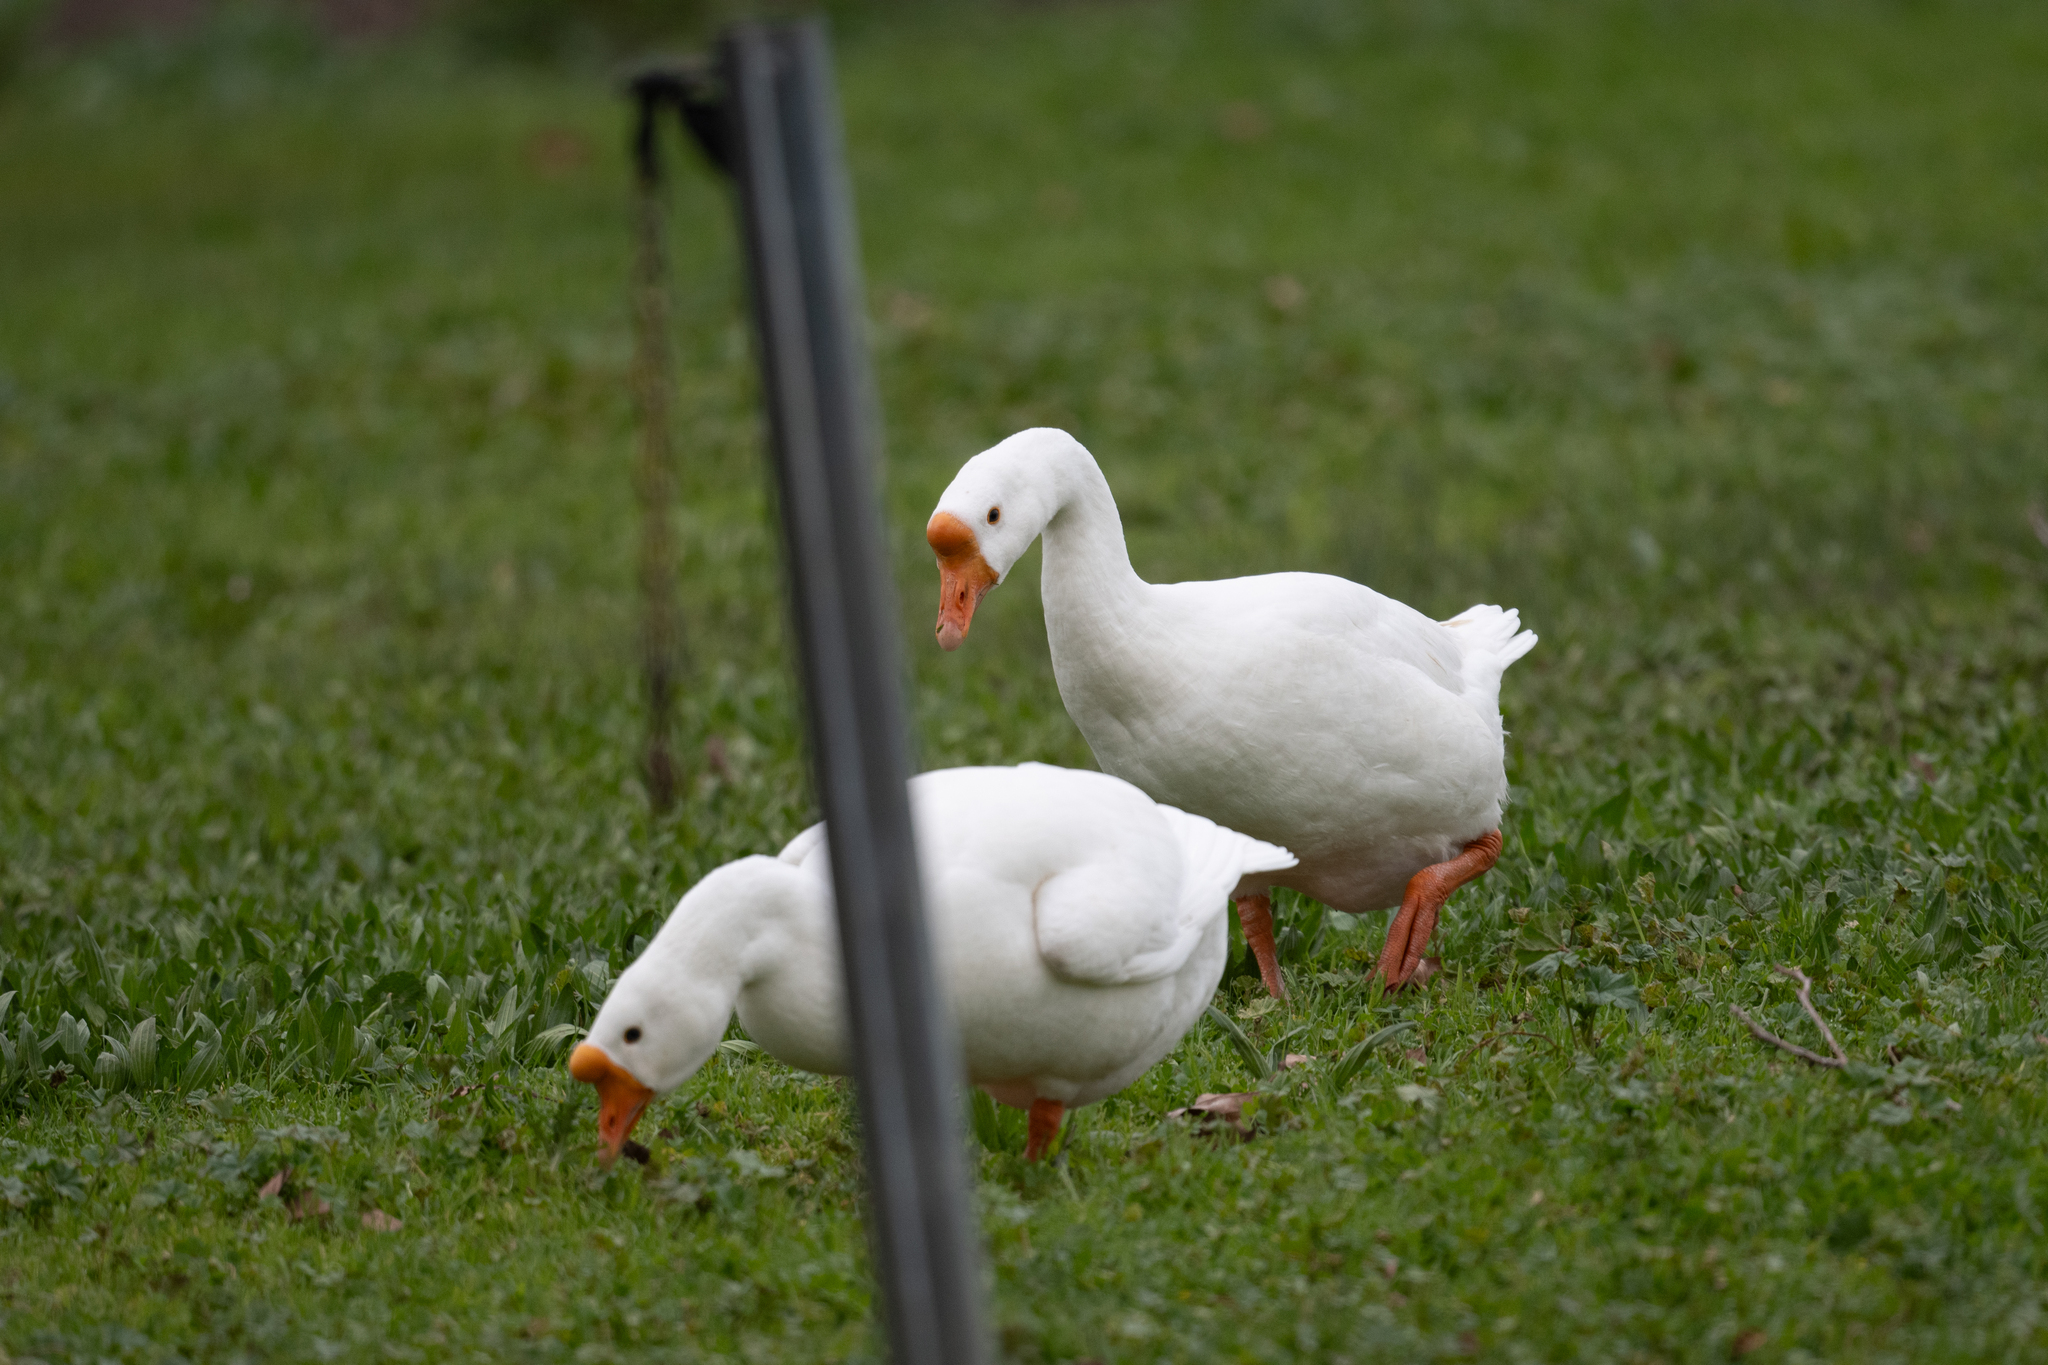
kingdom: Animalia
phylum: Chordata
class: Aves
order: Anseriformes
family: Anatidae
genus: Anser
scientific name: Anser cygnoides
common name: Swan goose
